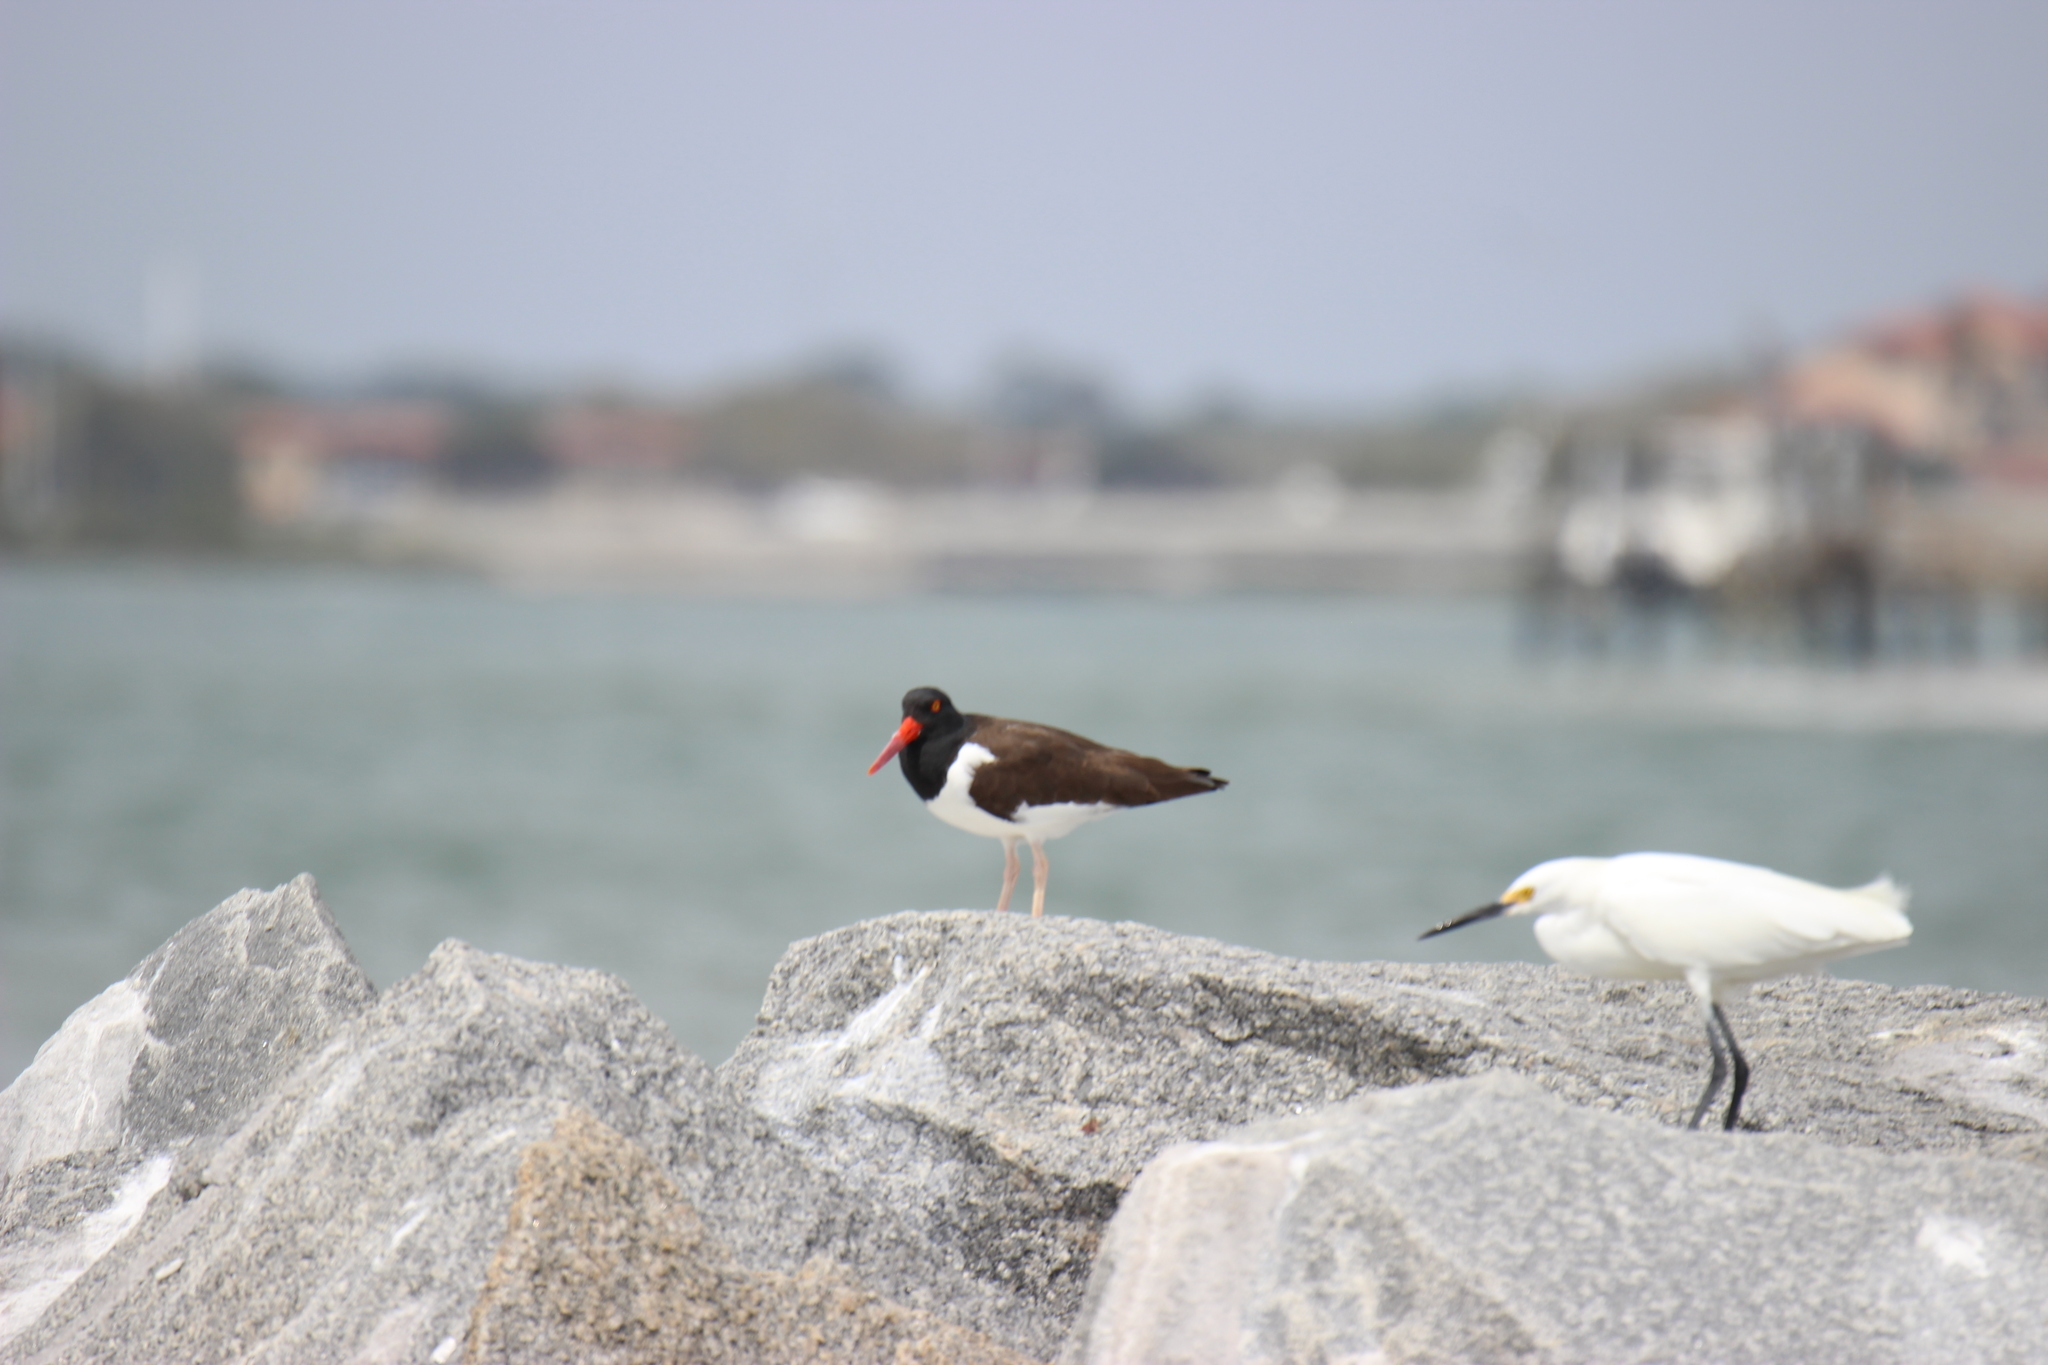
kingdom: Animalia
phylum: Chordata
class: Aves
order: Charadriiformes
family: Haematopodidae
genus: Haematopus
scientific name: Haematopus palliatus
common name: American oystercatcher
